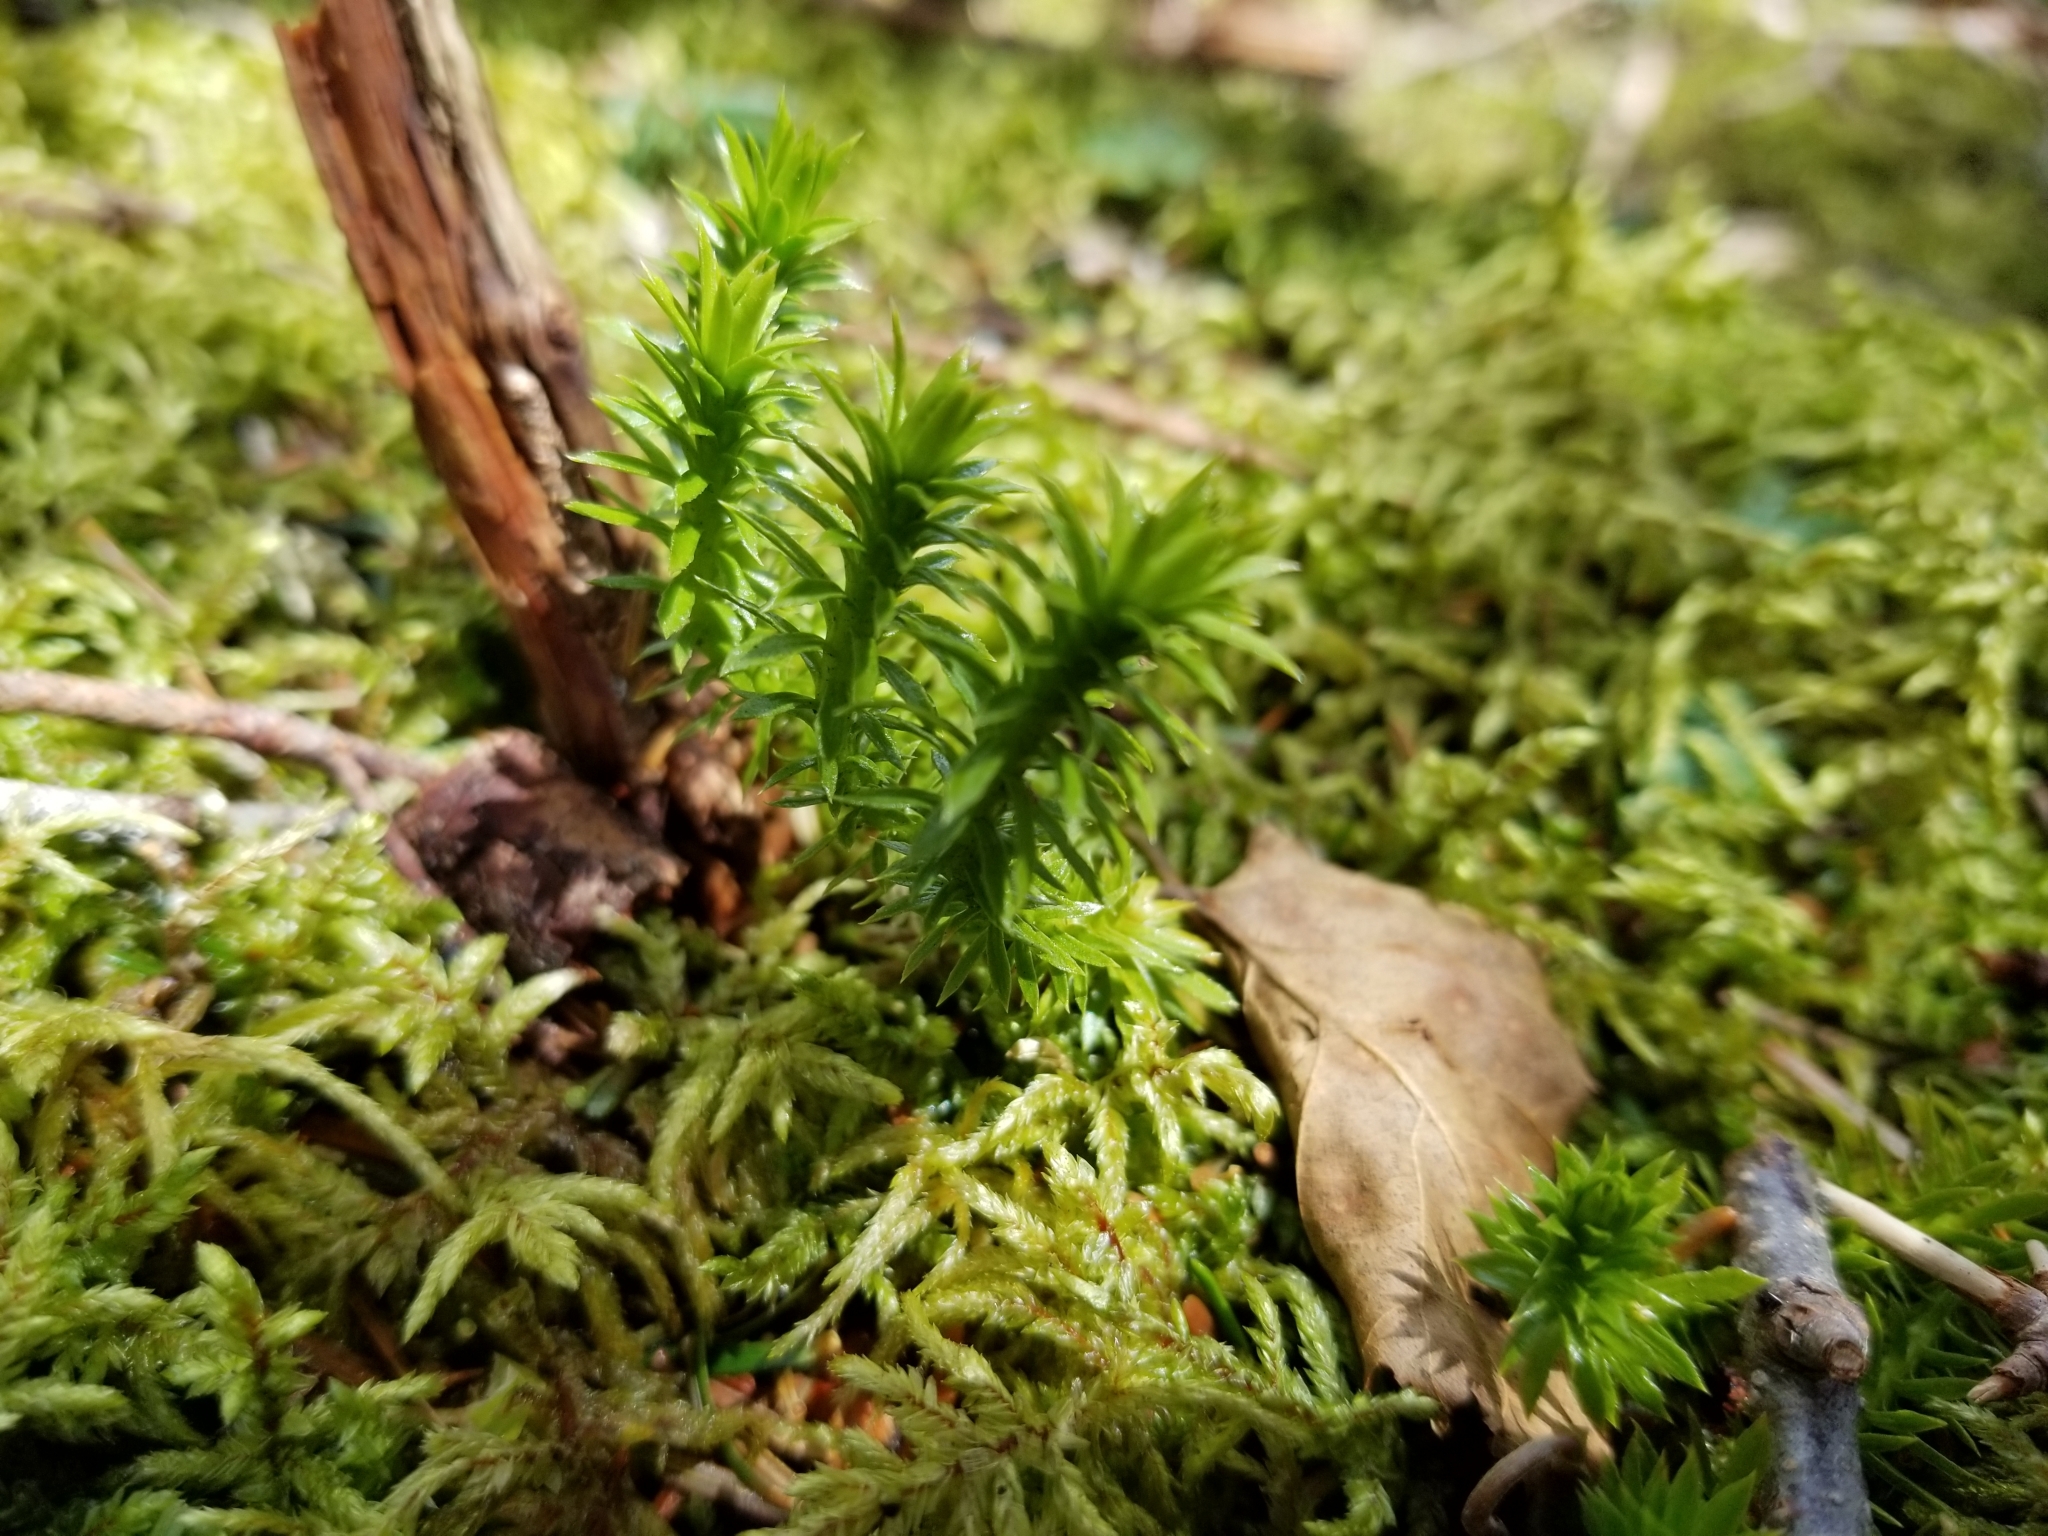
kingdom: Plantae
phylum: Tracheophyta
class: Lycopodiopsida
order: Lycopodiales
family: Lycopodiaceae
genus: Huperzia
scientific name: Huperzia lucidula
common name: Shining clubmoss
